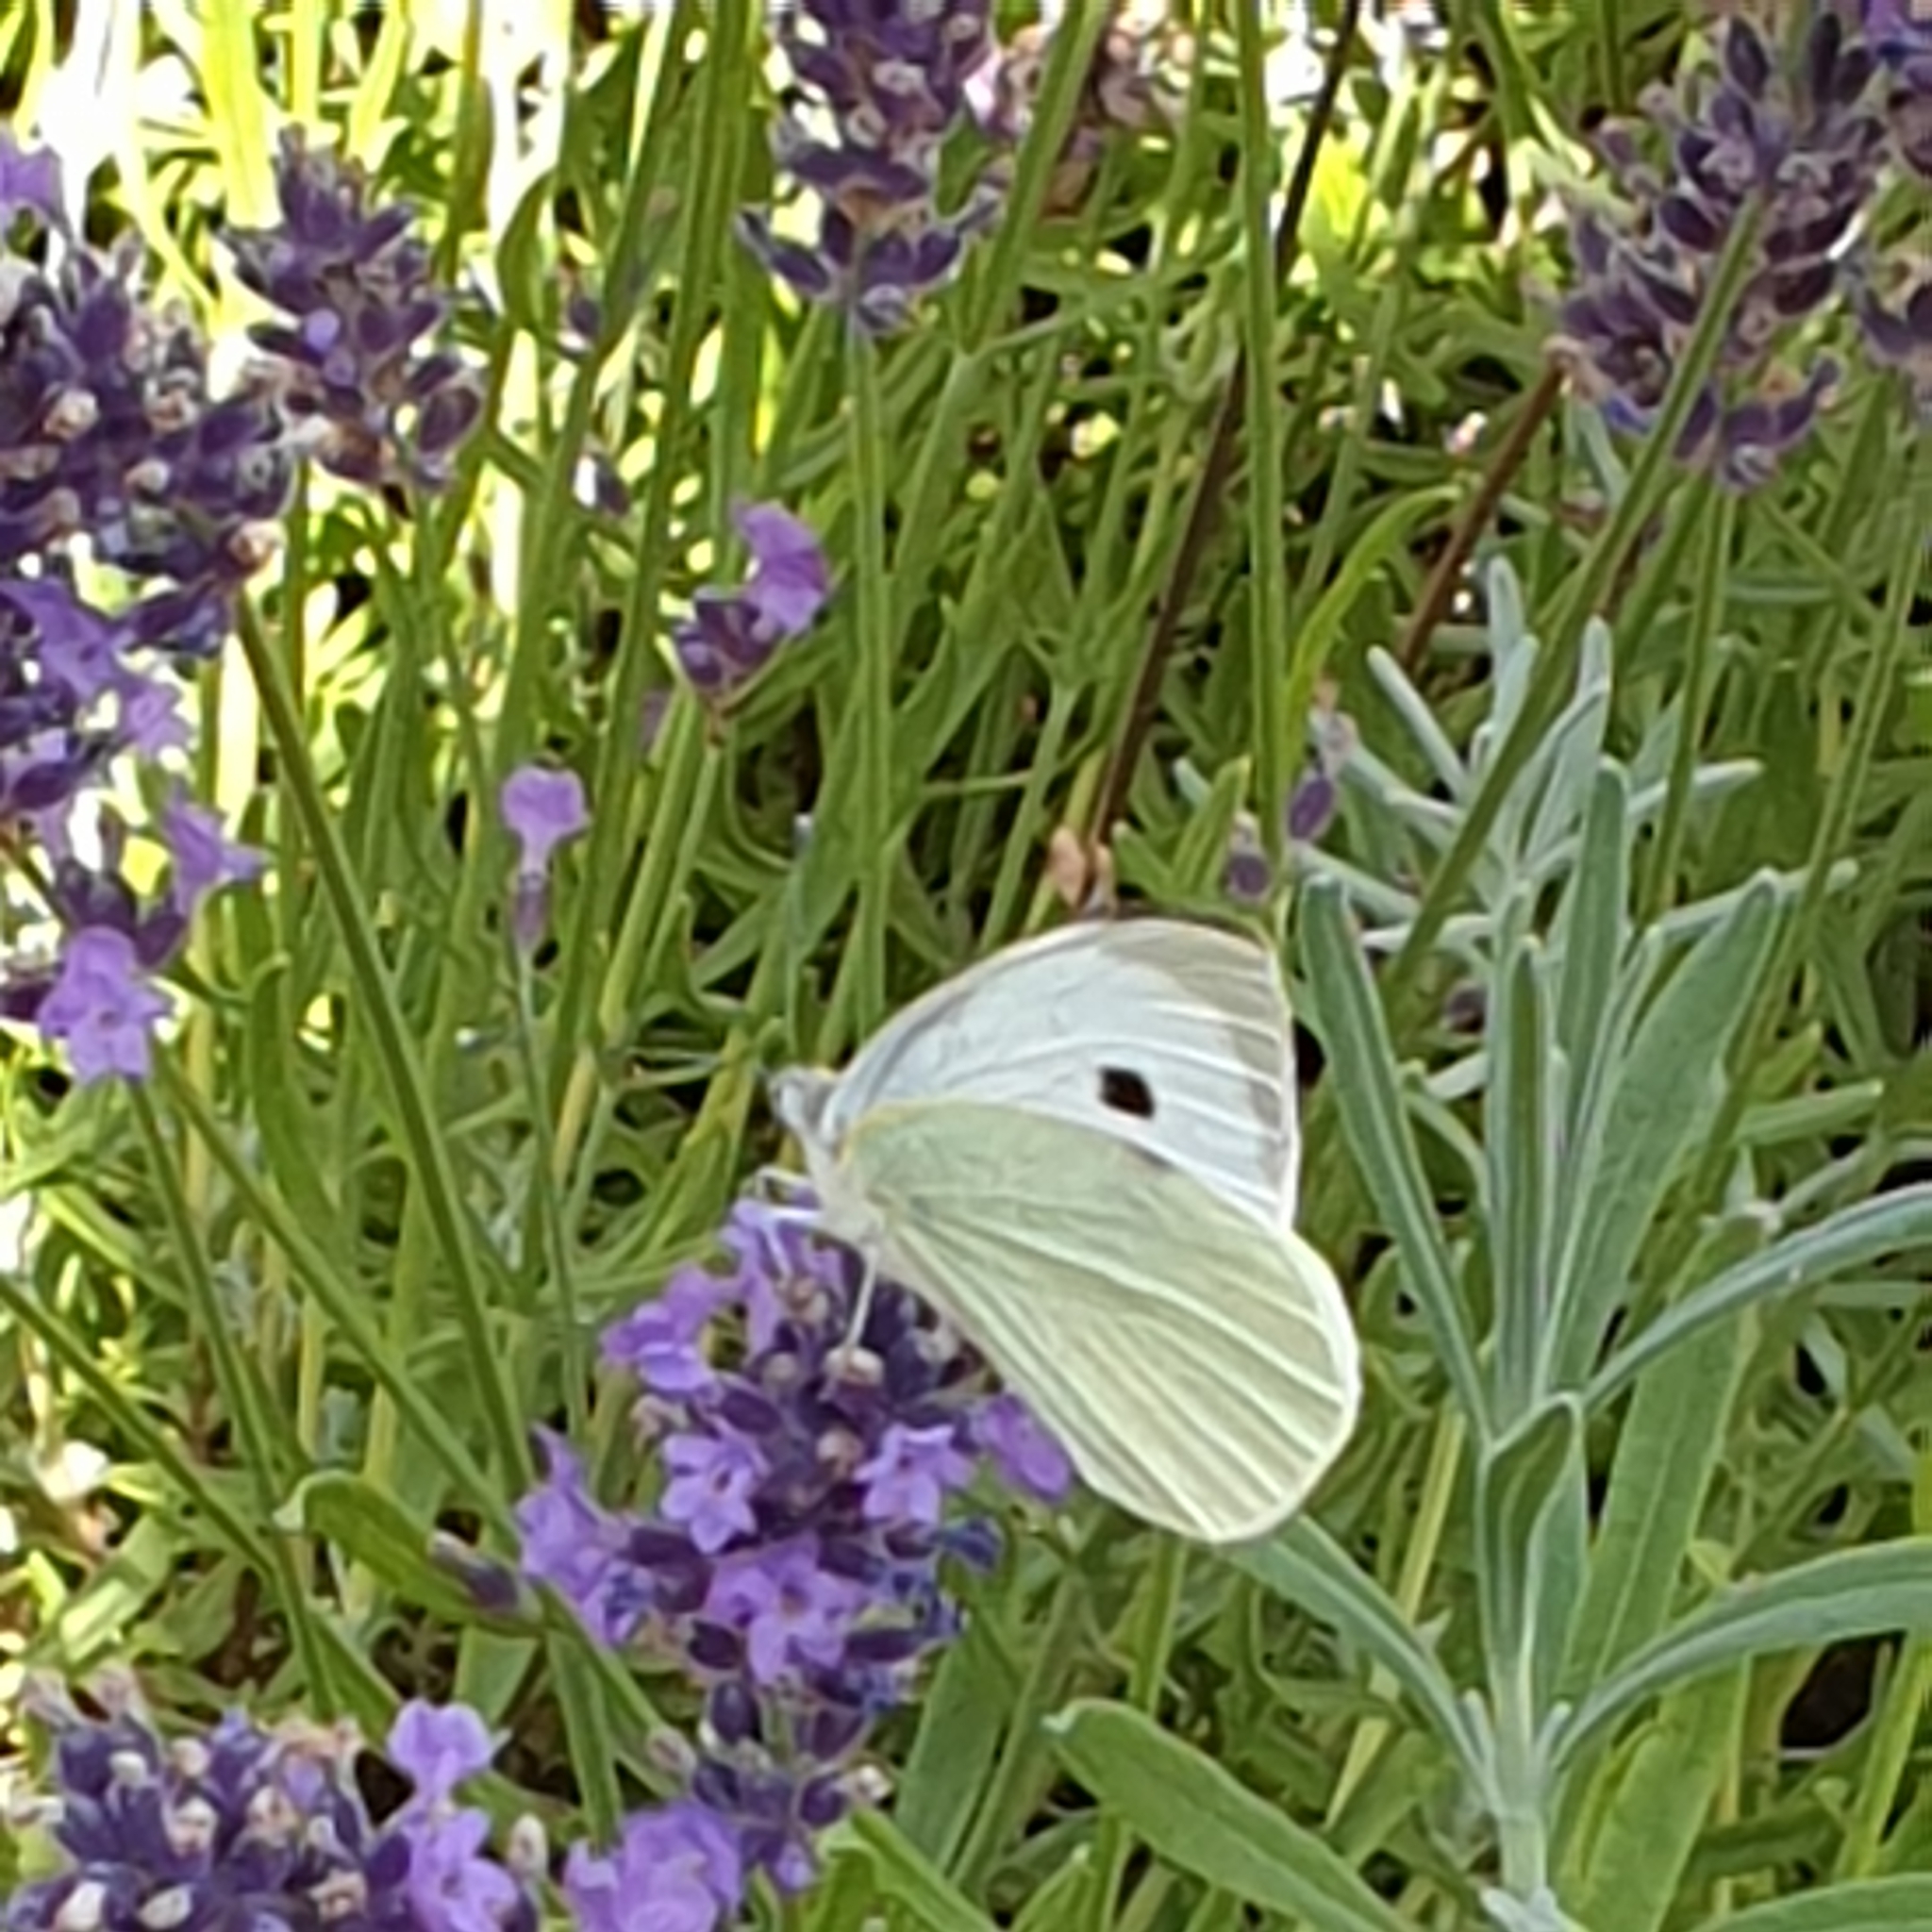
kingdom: Animalia
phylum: Arthropoda
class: Insecta
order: Lepidoptera
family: Pieridae
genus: Pieris
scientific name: Pieris brassicae
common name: Large white
